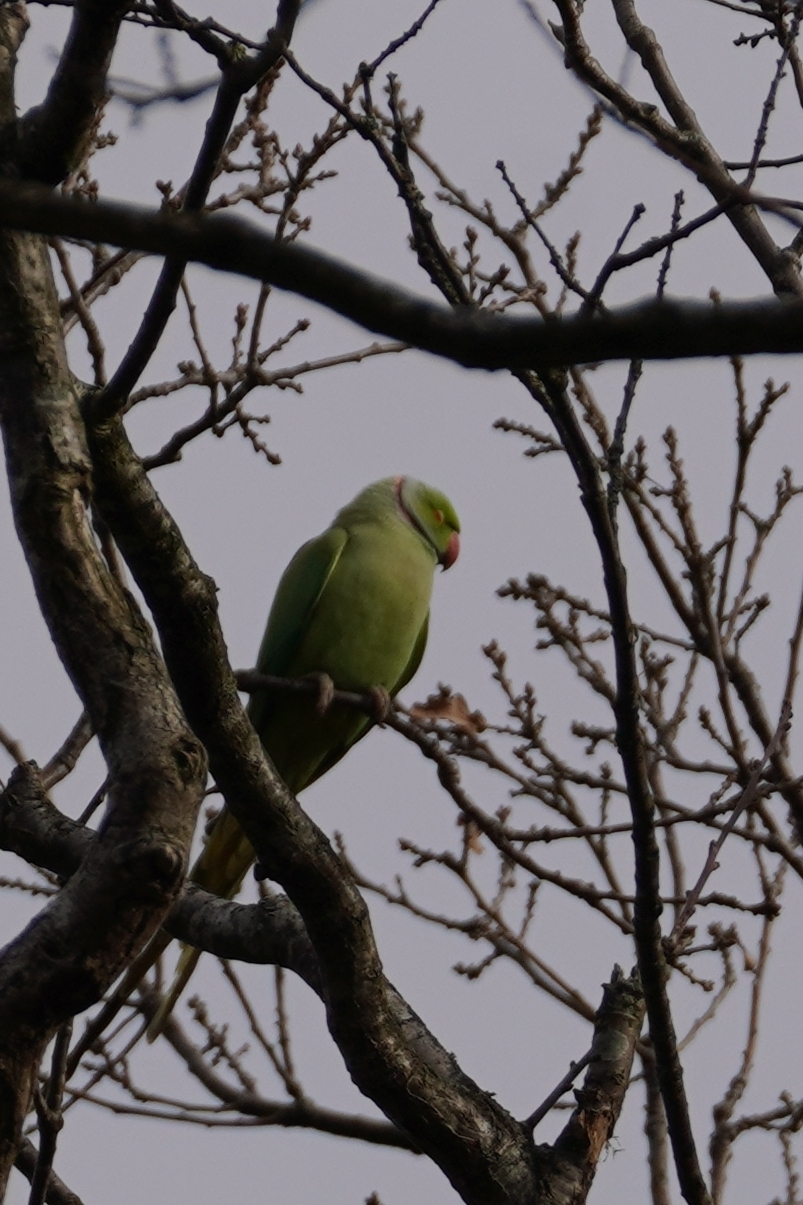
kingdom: Animalia
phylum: Chordata
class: Aves
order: Psittaciformes
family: Psittacidae
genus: Psittacula
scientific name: Psittacula krameri
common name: Rose-ringed parakeet
